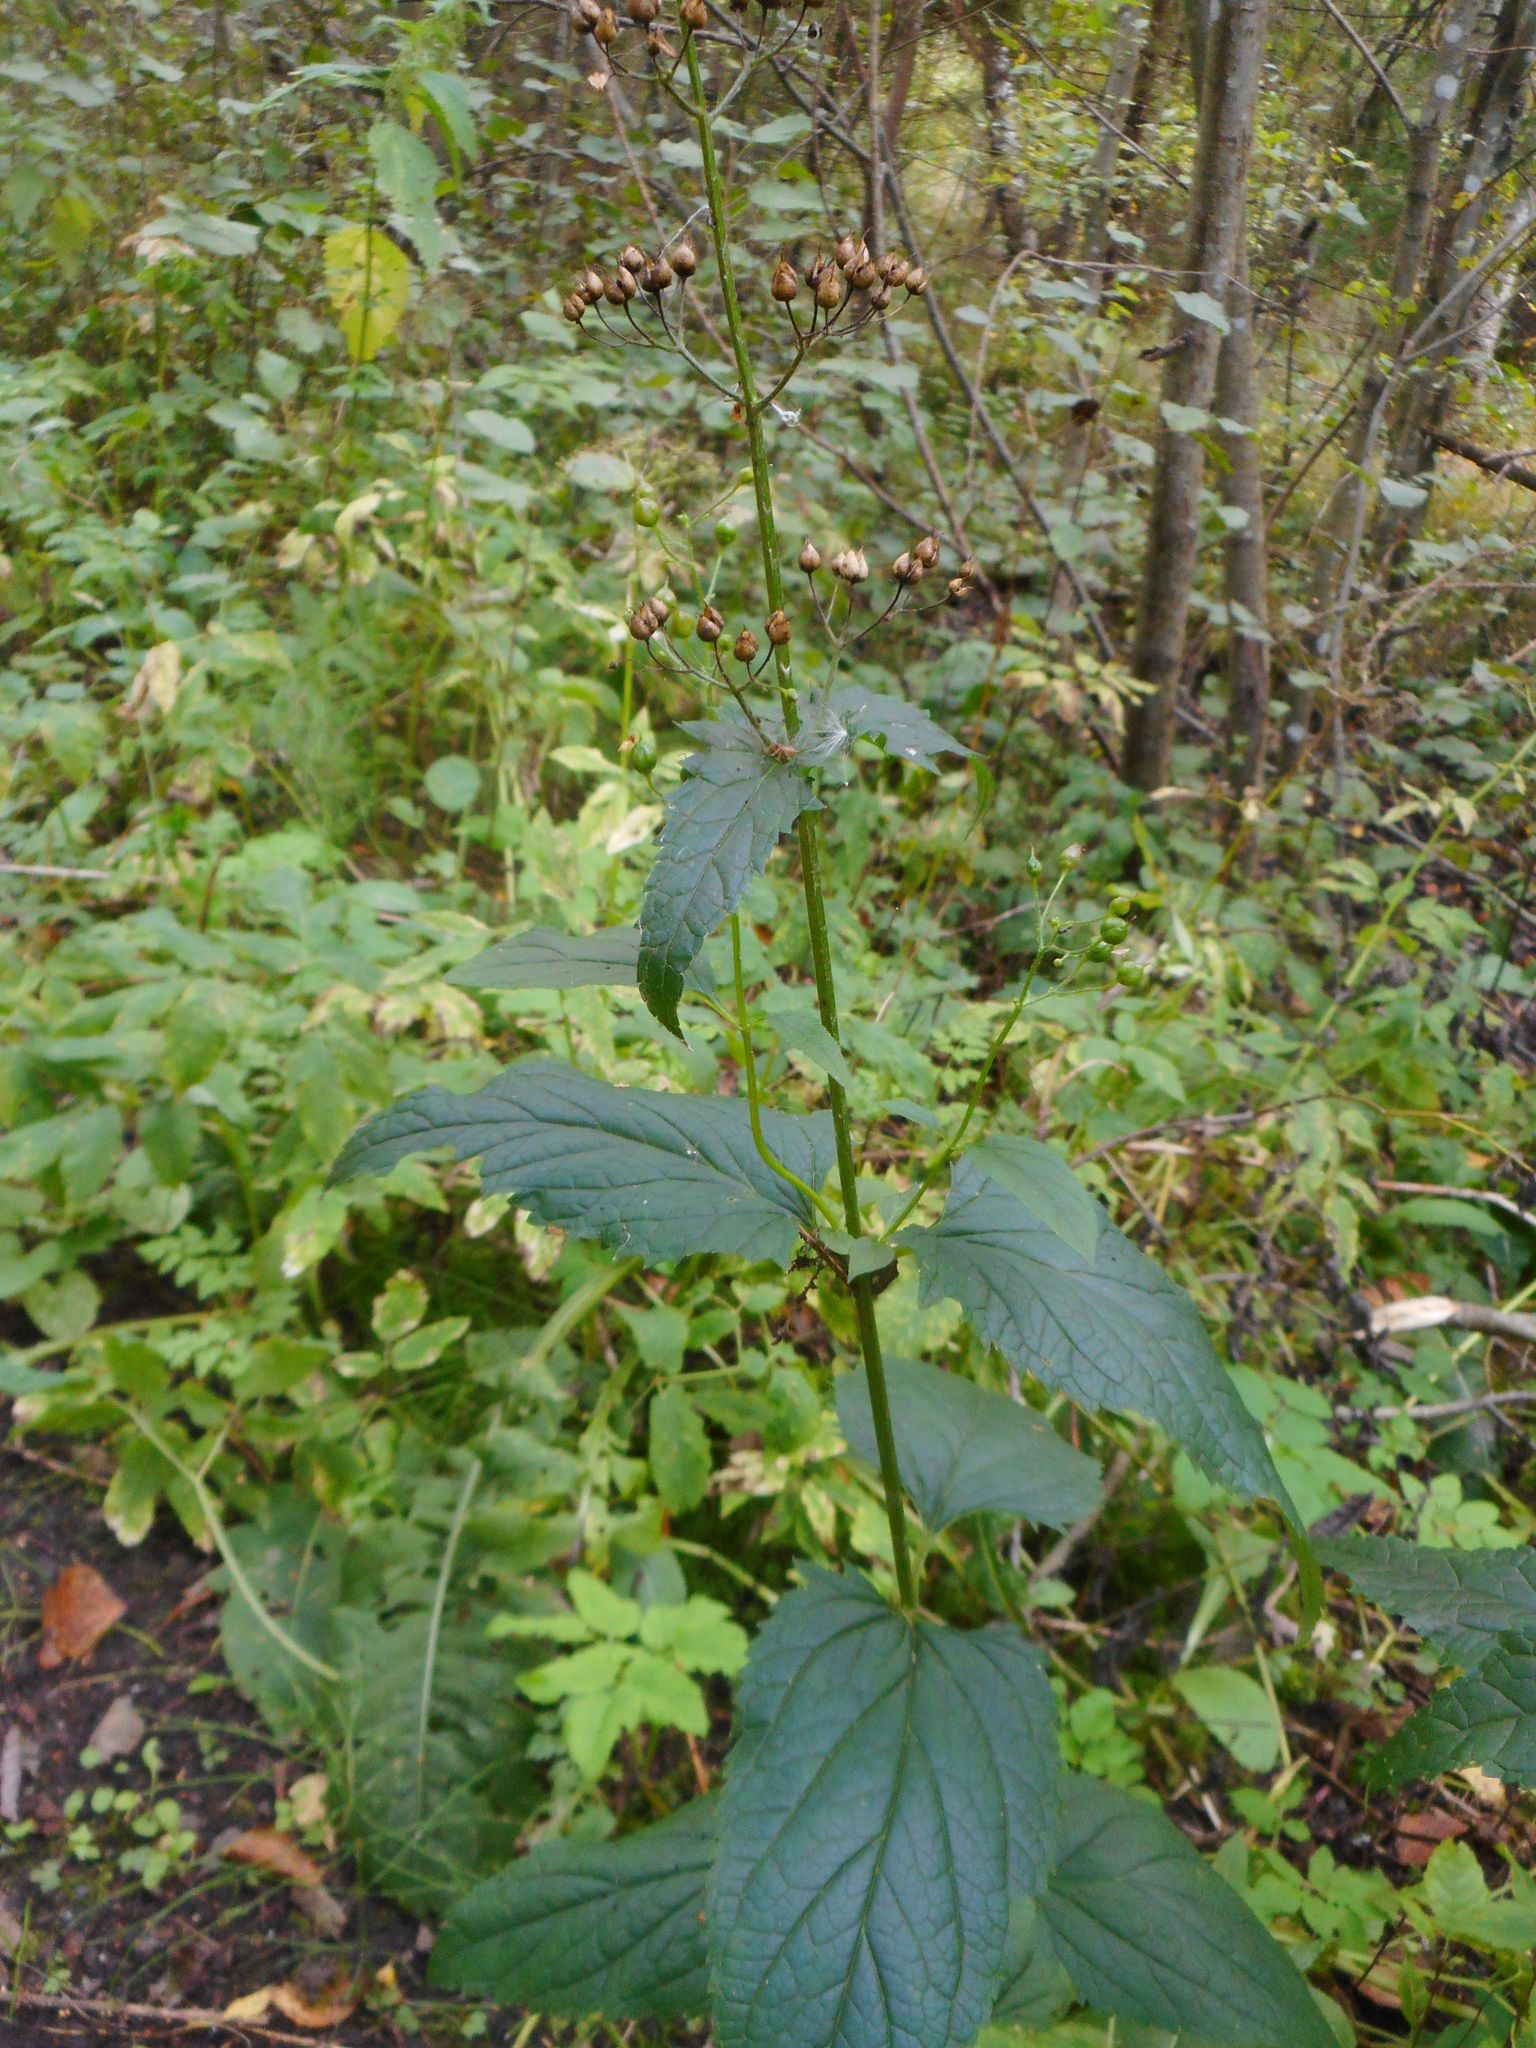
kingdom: Plantae
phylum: Tracheophyta
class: Magnoliopsida
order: Lamiales
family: Scrophulariaceae
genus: Scrophularia
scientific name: Scrophularia nodosa
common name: Common figwort
